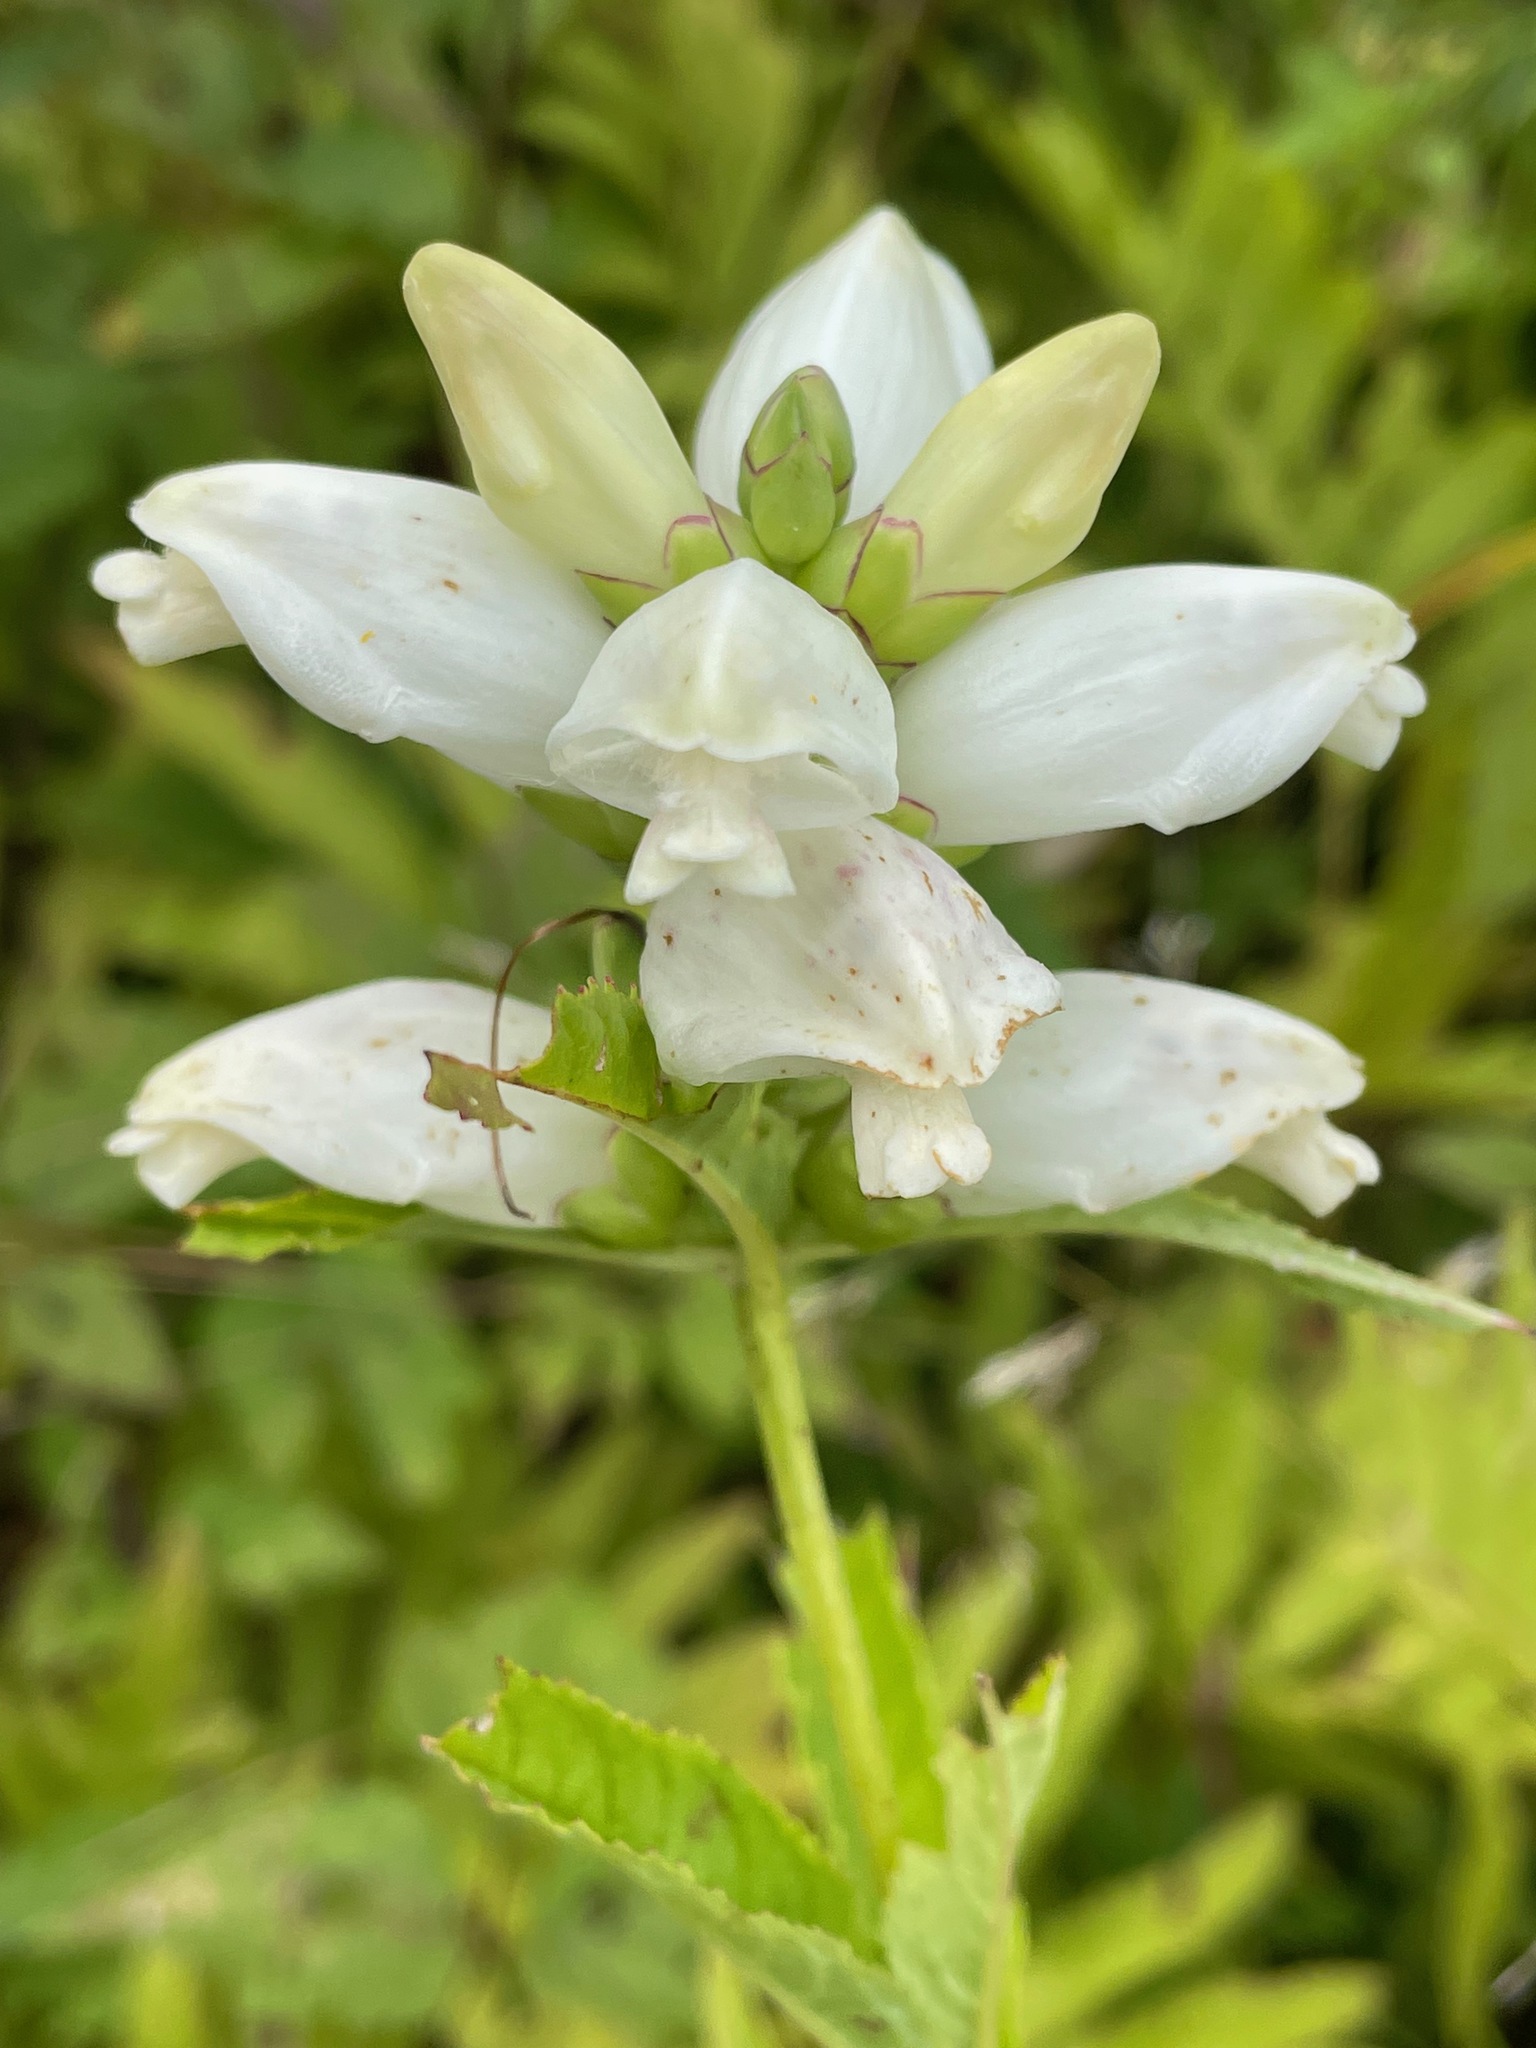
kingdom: Plantae
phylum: Tracheophyta
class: Magnoliopsida
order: Lamiales
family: Plantaginaceae
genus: Chelone
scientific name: Chelone glabra
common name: Snakehead
